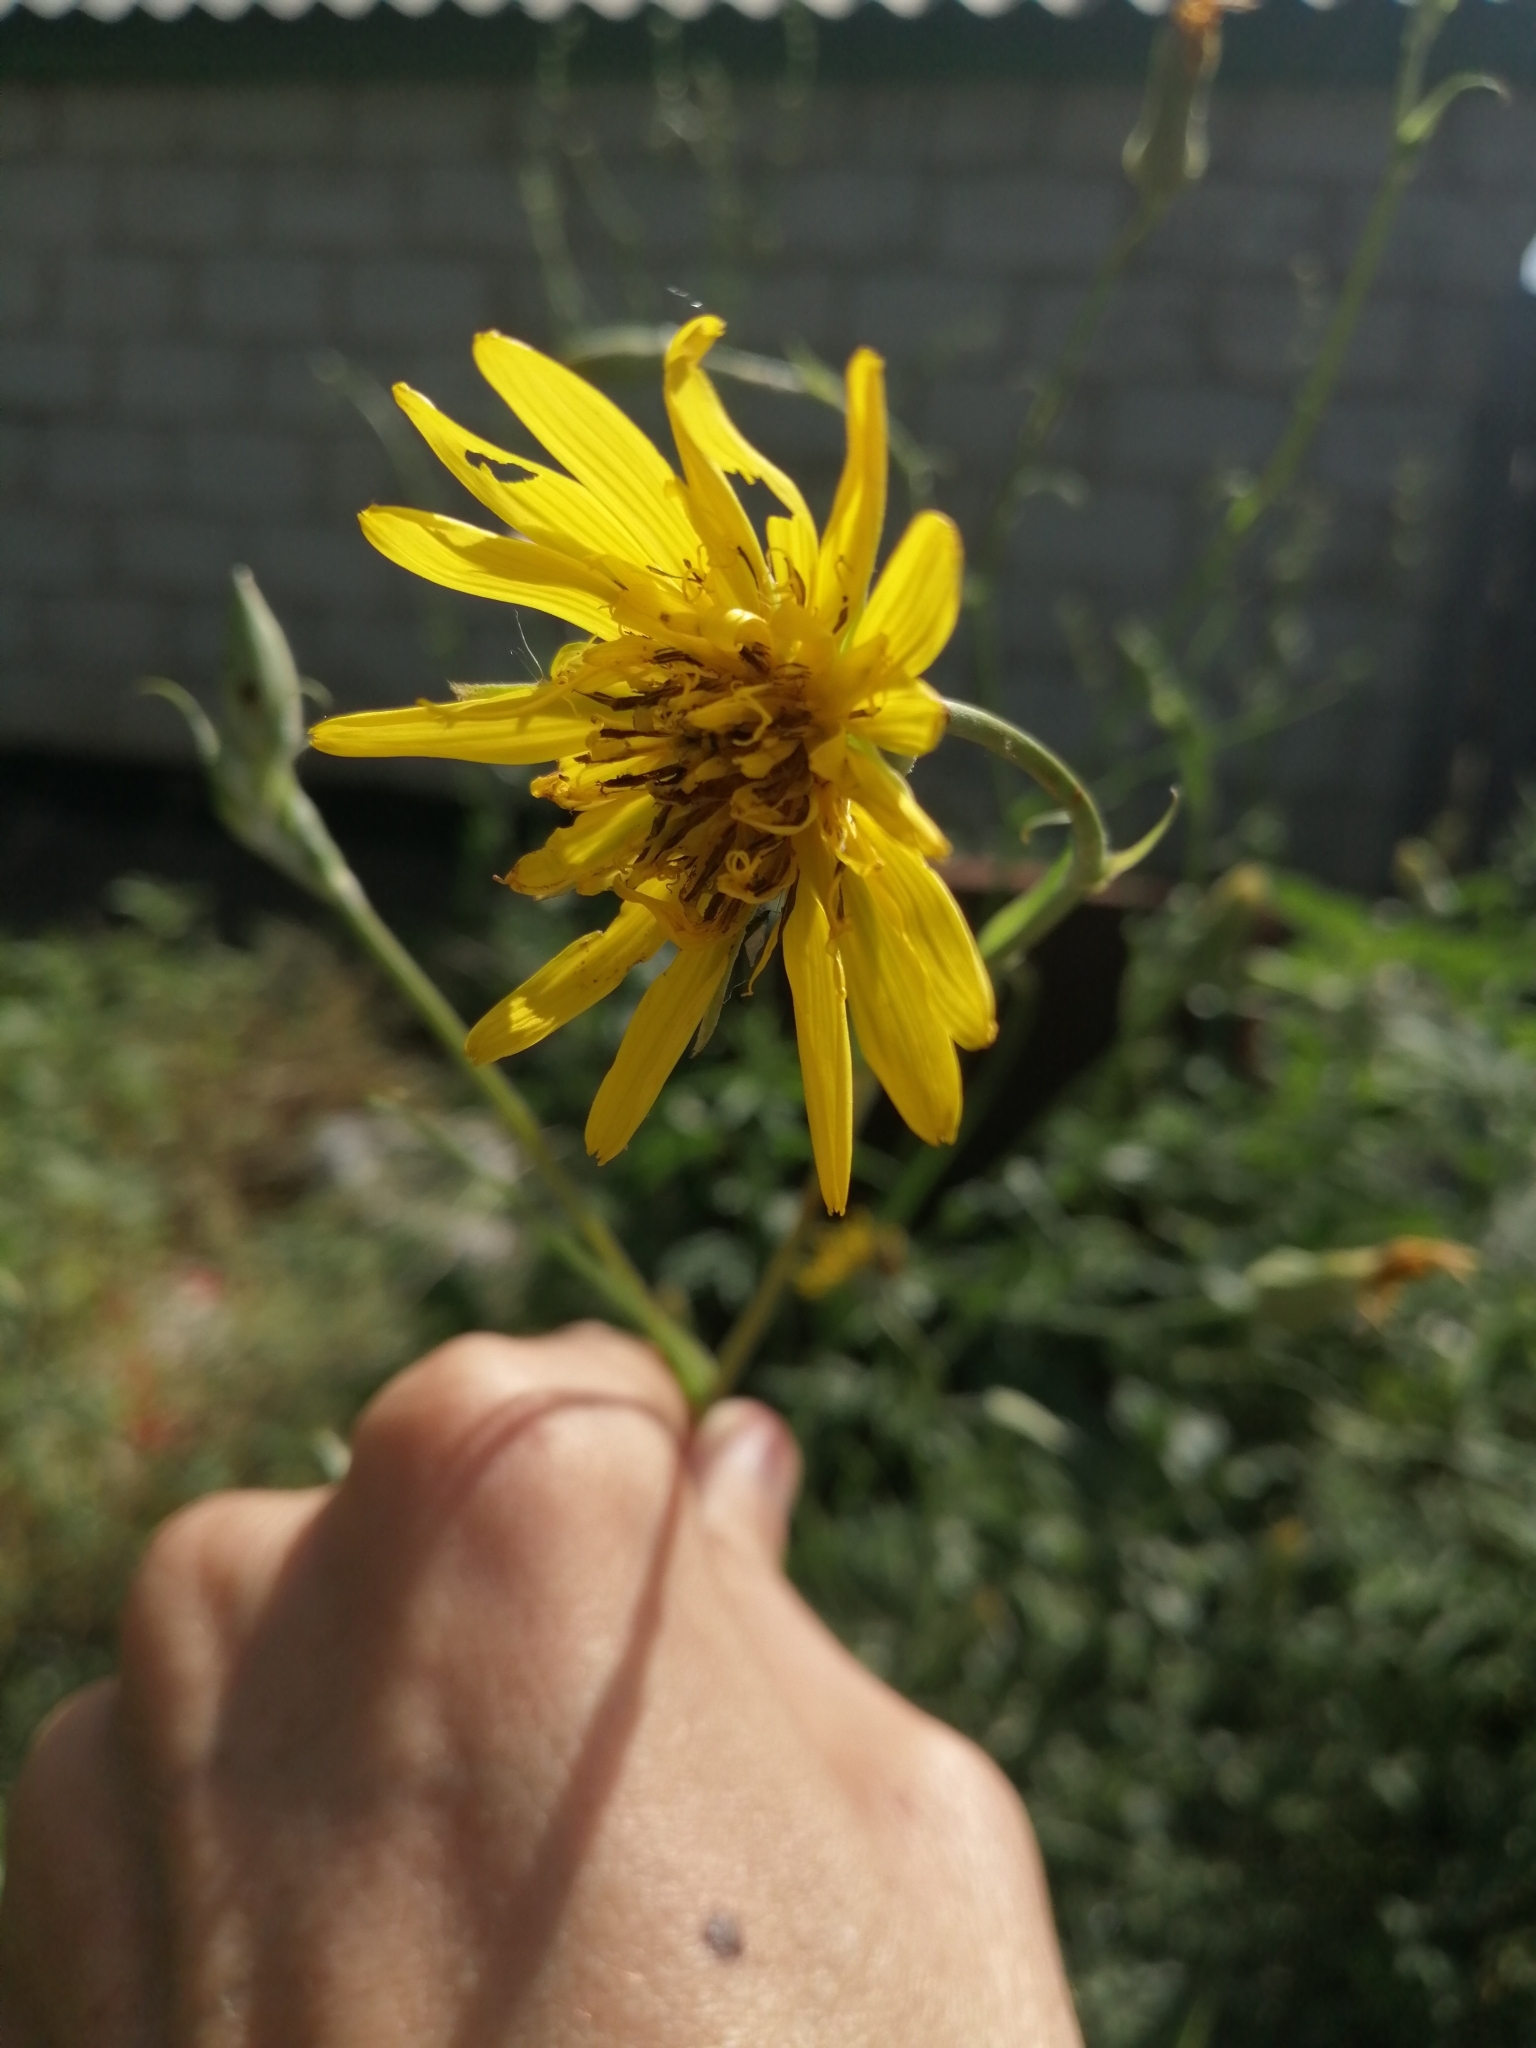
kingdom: Plantae
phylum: Tracheophyta
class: Magnoliopsida
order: Asterales
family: Asteraceae
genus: Tragopogon
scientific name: Tragopogon orientalis
